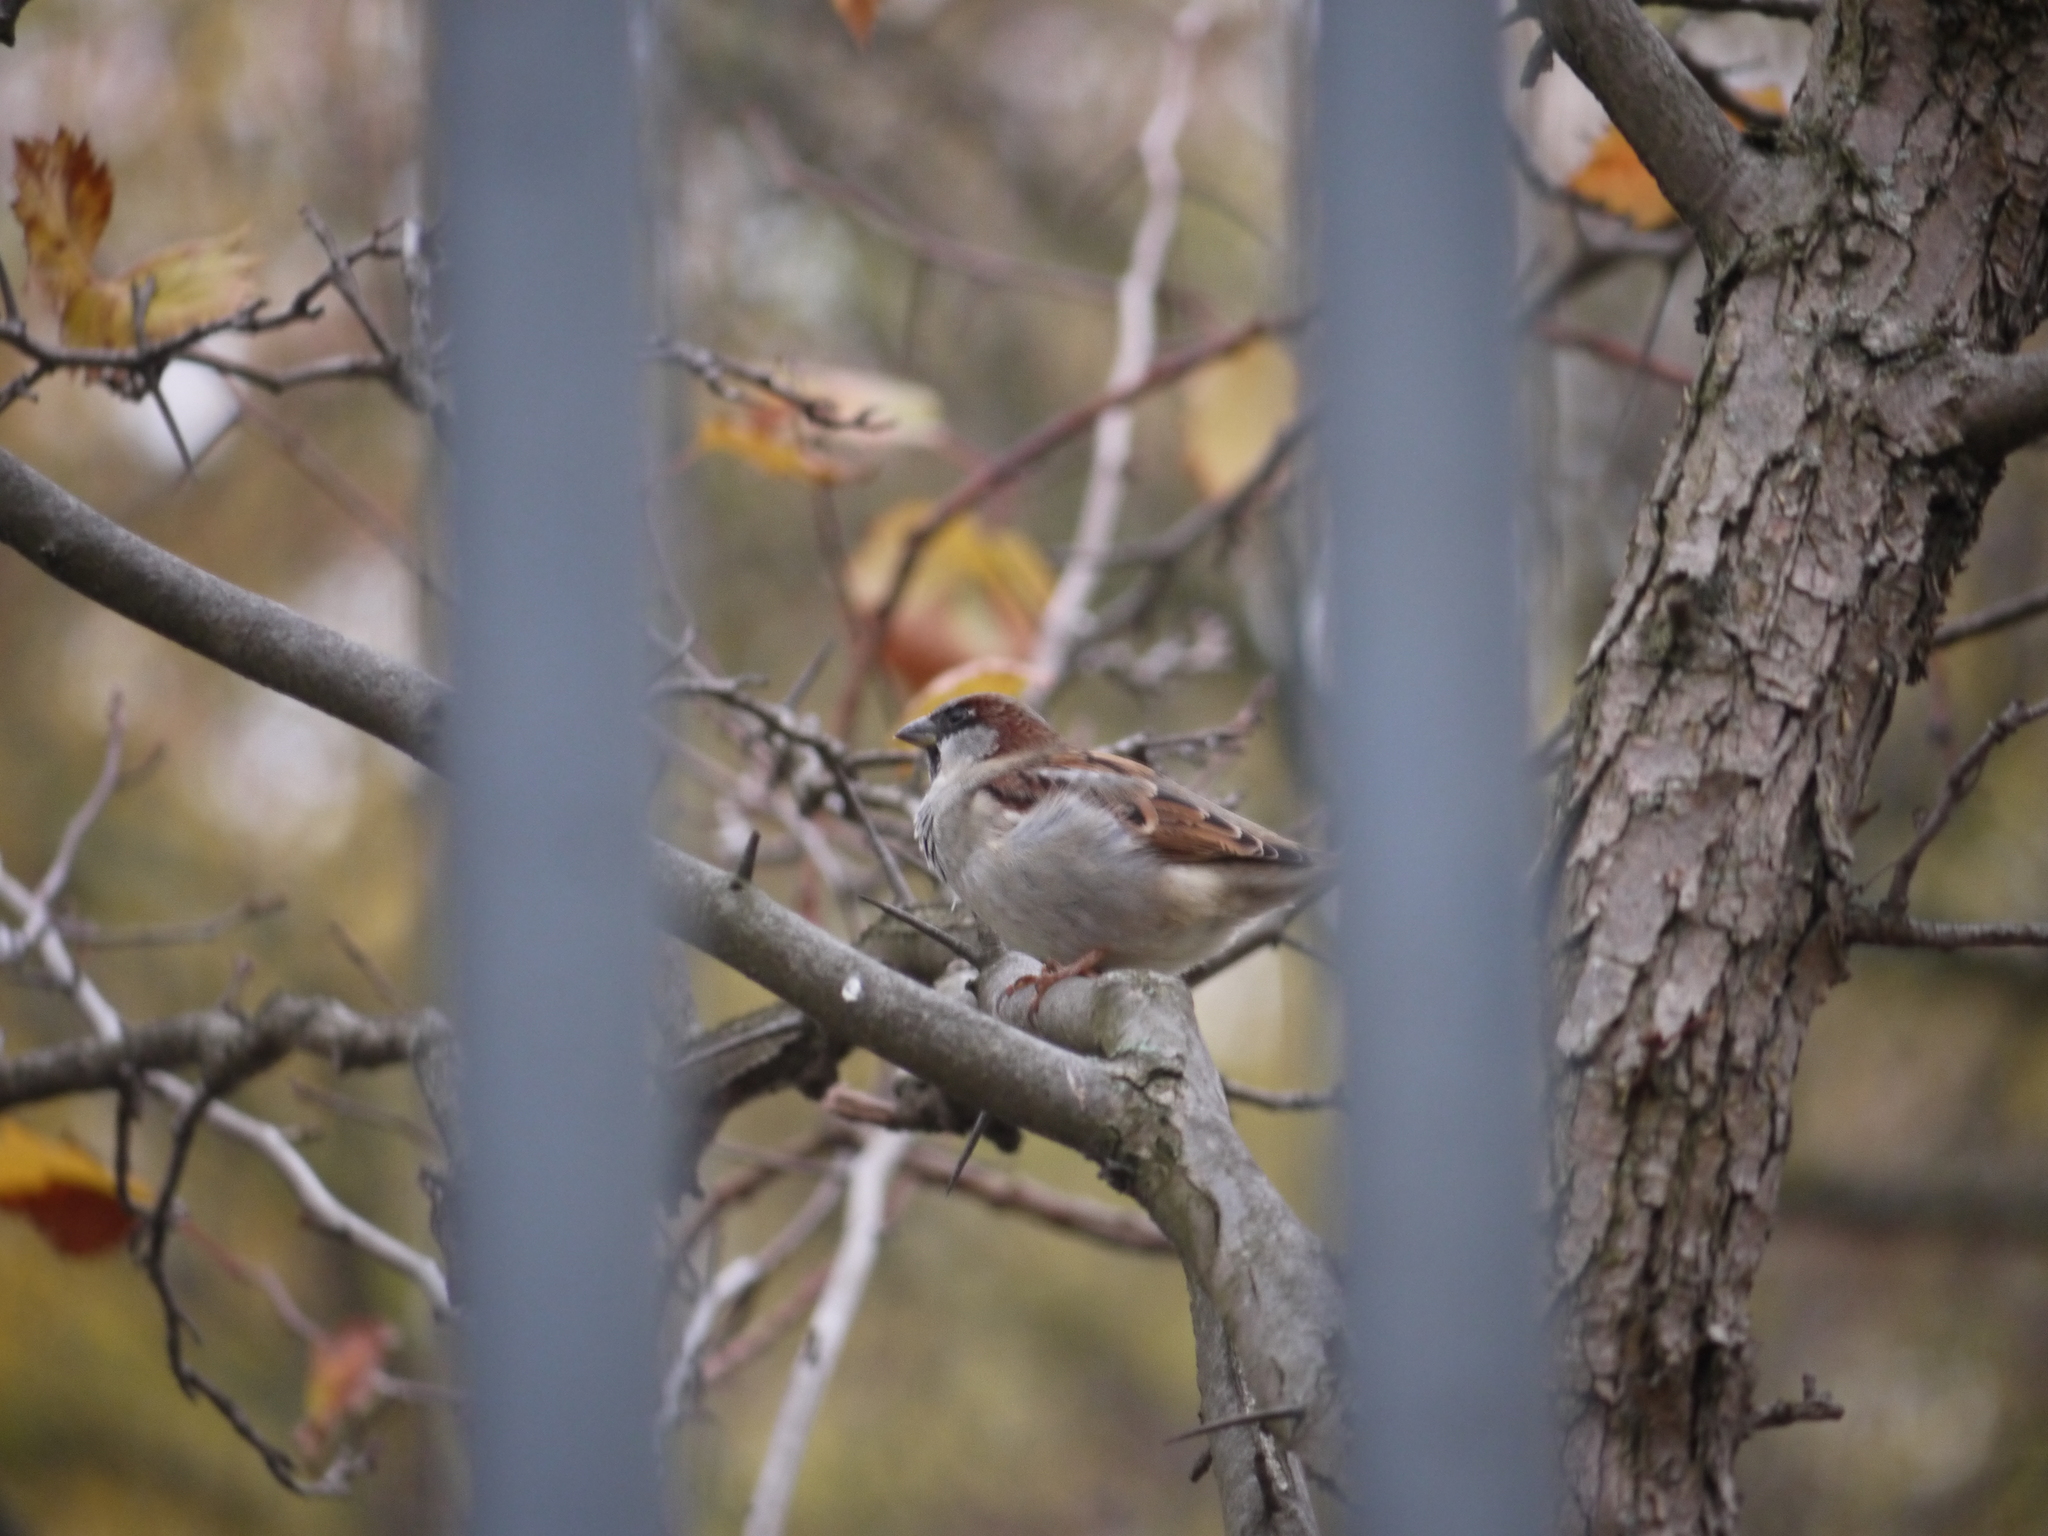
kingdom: Animalia
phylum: Chordata
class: Aves
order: Passeriformes
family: Passeridae
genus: Passer
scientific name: Passer domesticus
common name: House sparrow
